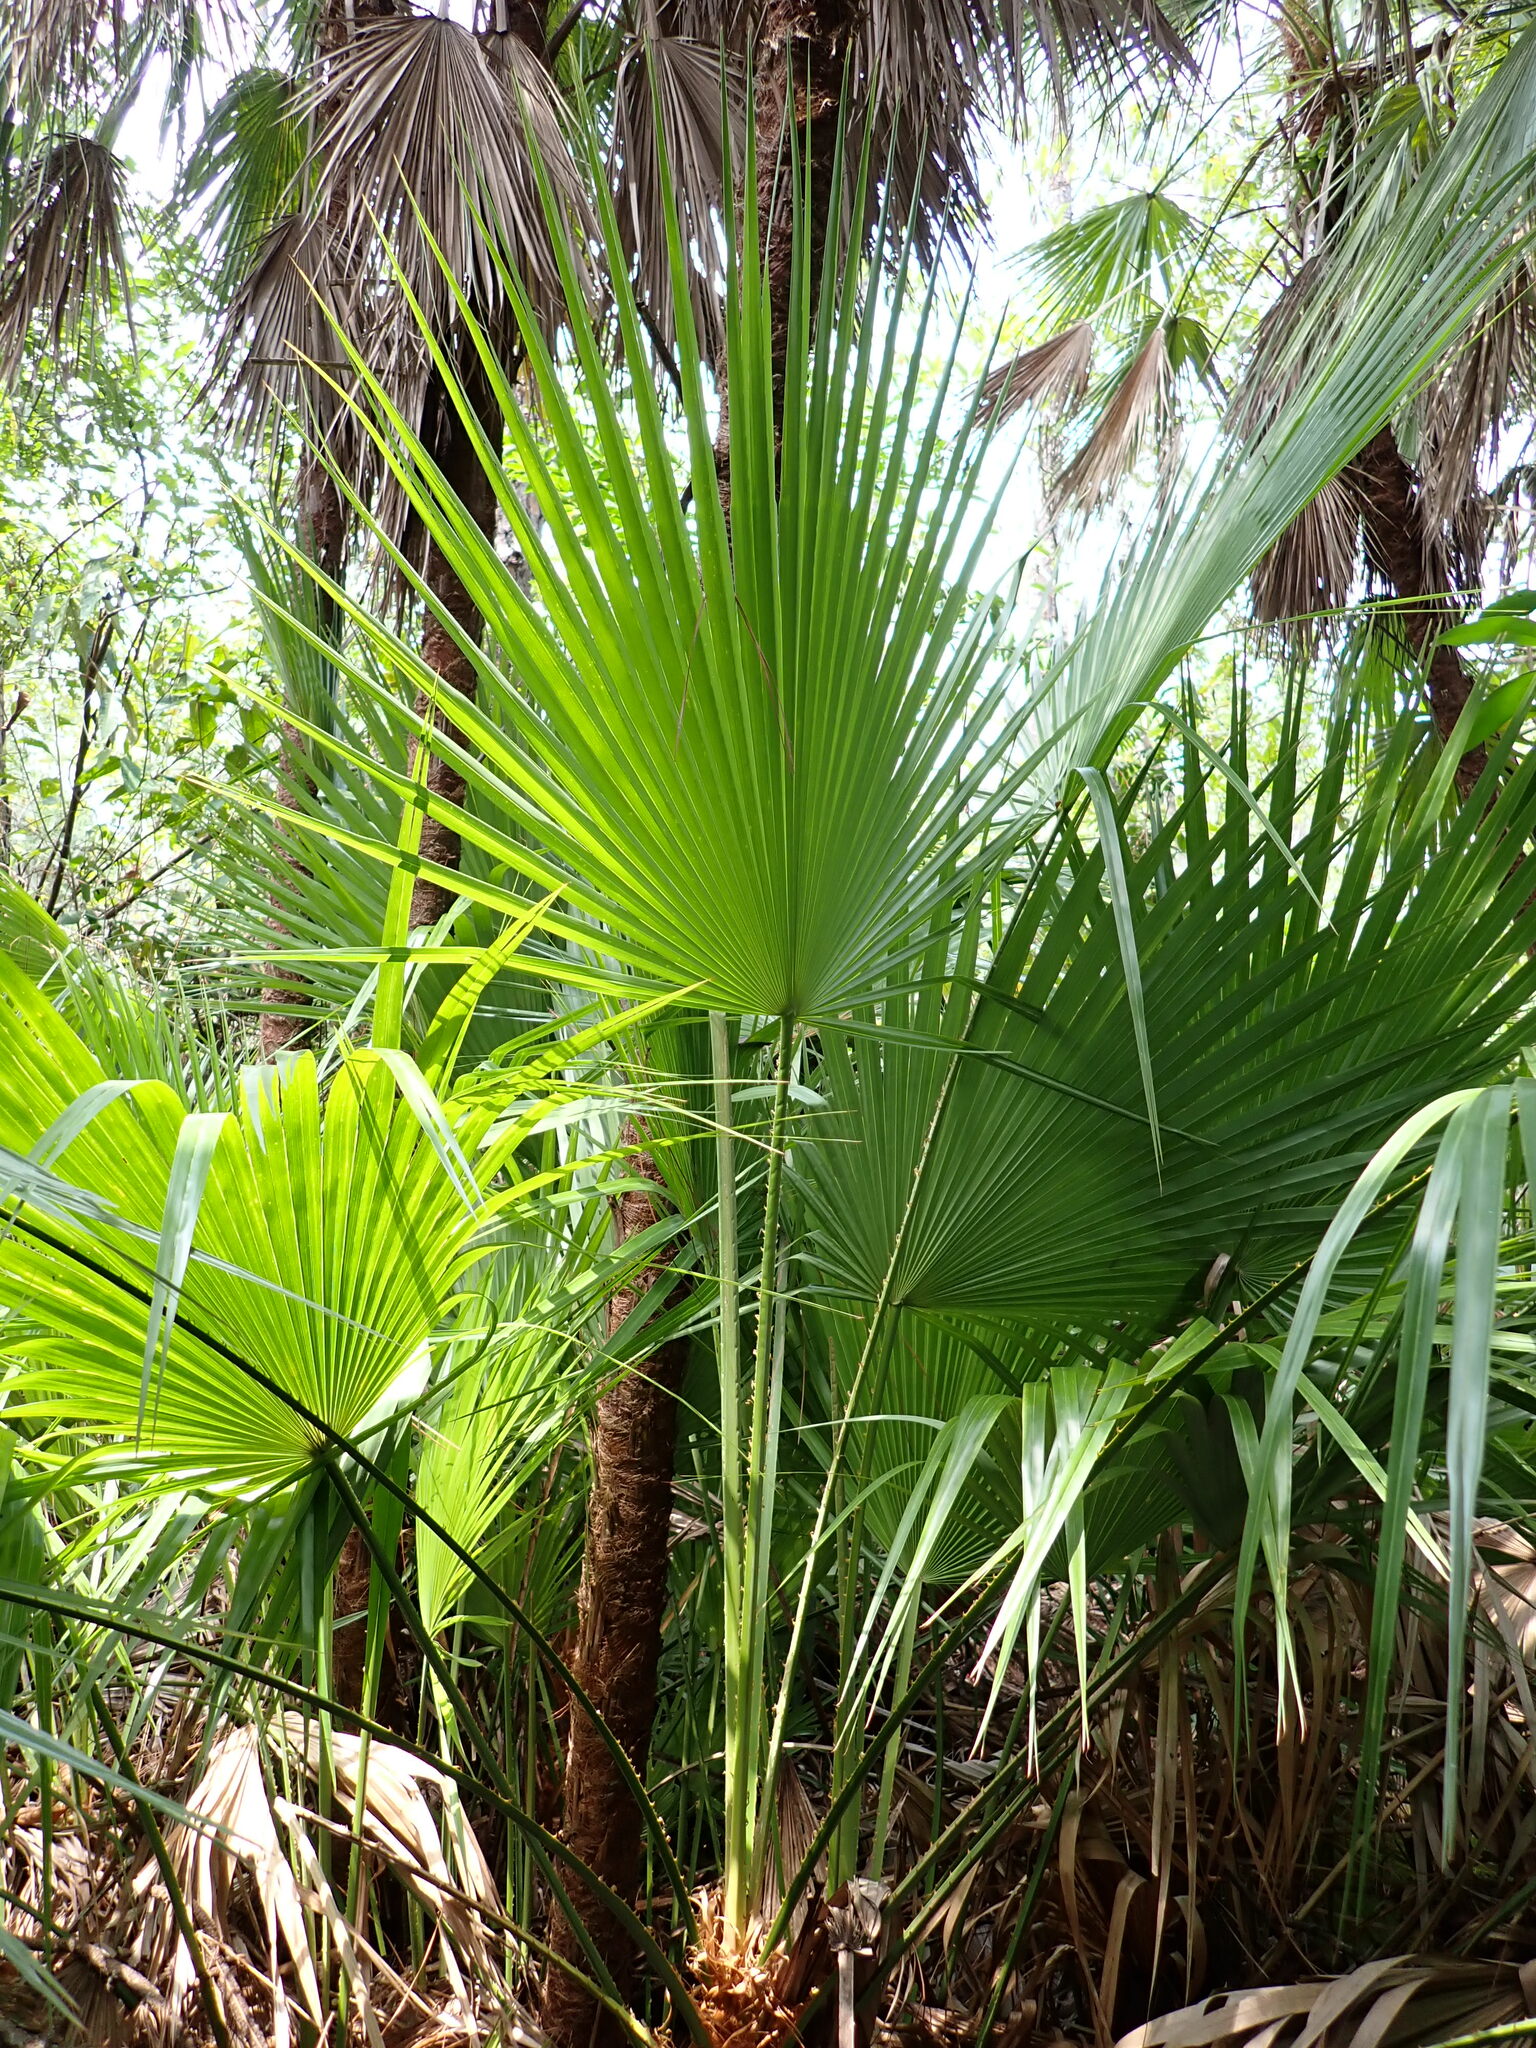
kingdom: Plantae
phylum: Tracheophyta
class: Liliopsida
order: Arecales
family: Arecaceae
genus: Acoelorraphe
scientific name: Acoelorraphe wrightii
